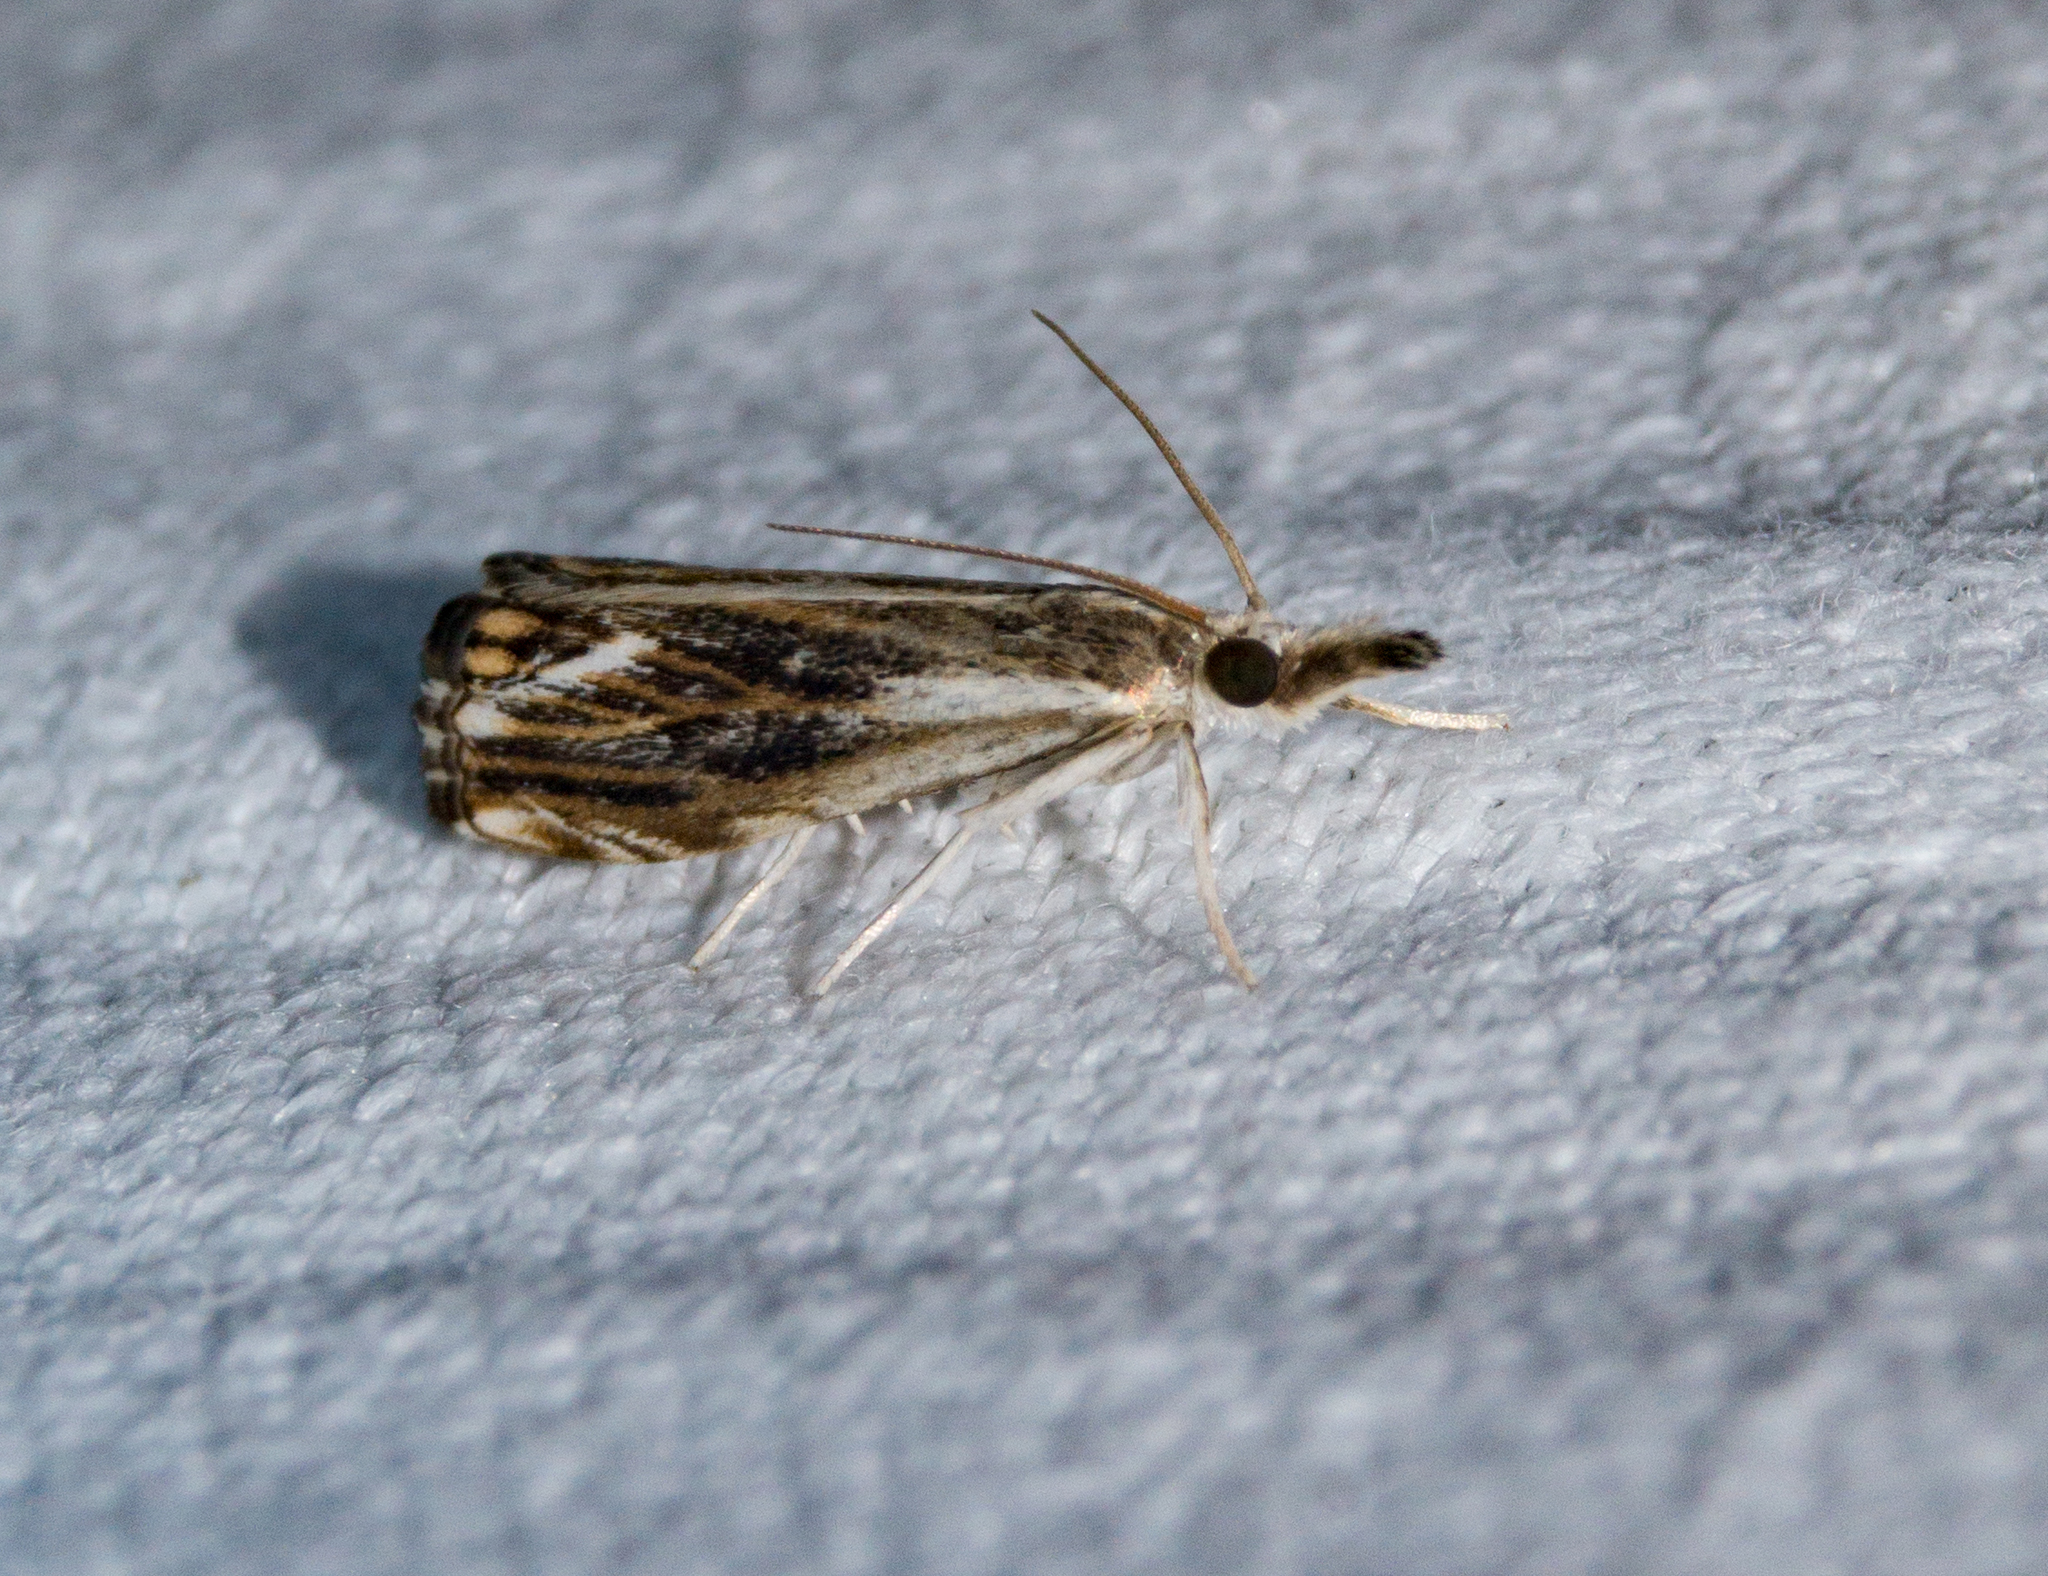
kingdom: Animalia
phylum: Arthropoda
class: Insecta
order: Lepidoptera
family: Crambidae
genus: Catoptria
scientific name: Catoptria verellus
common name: Marbled grass-veneer
